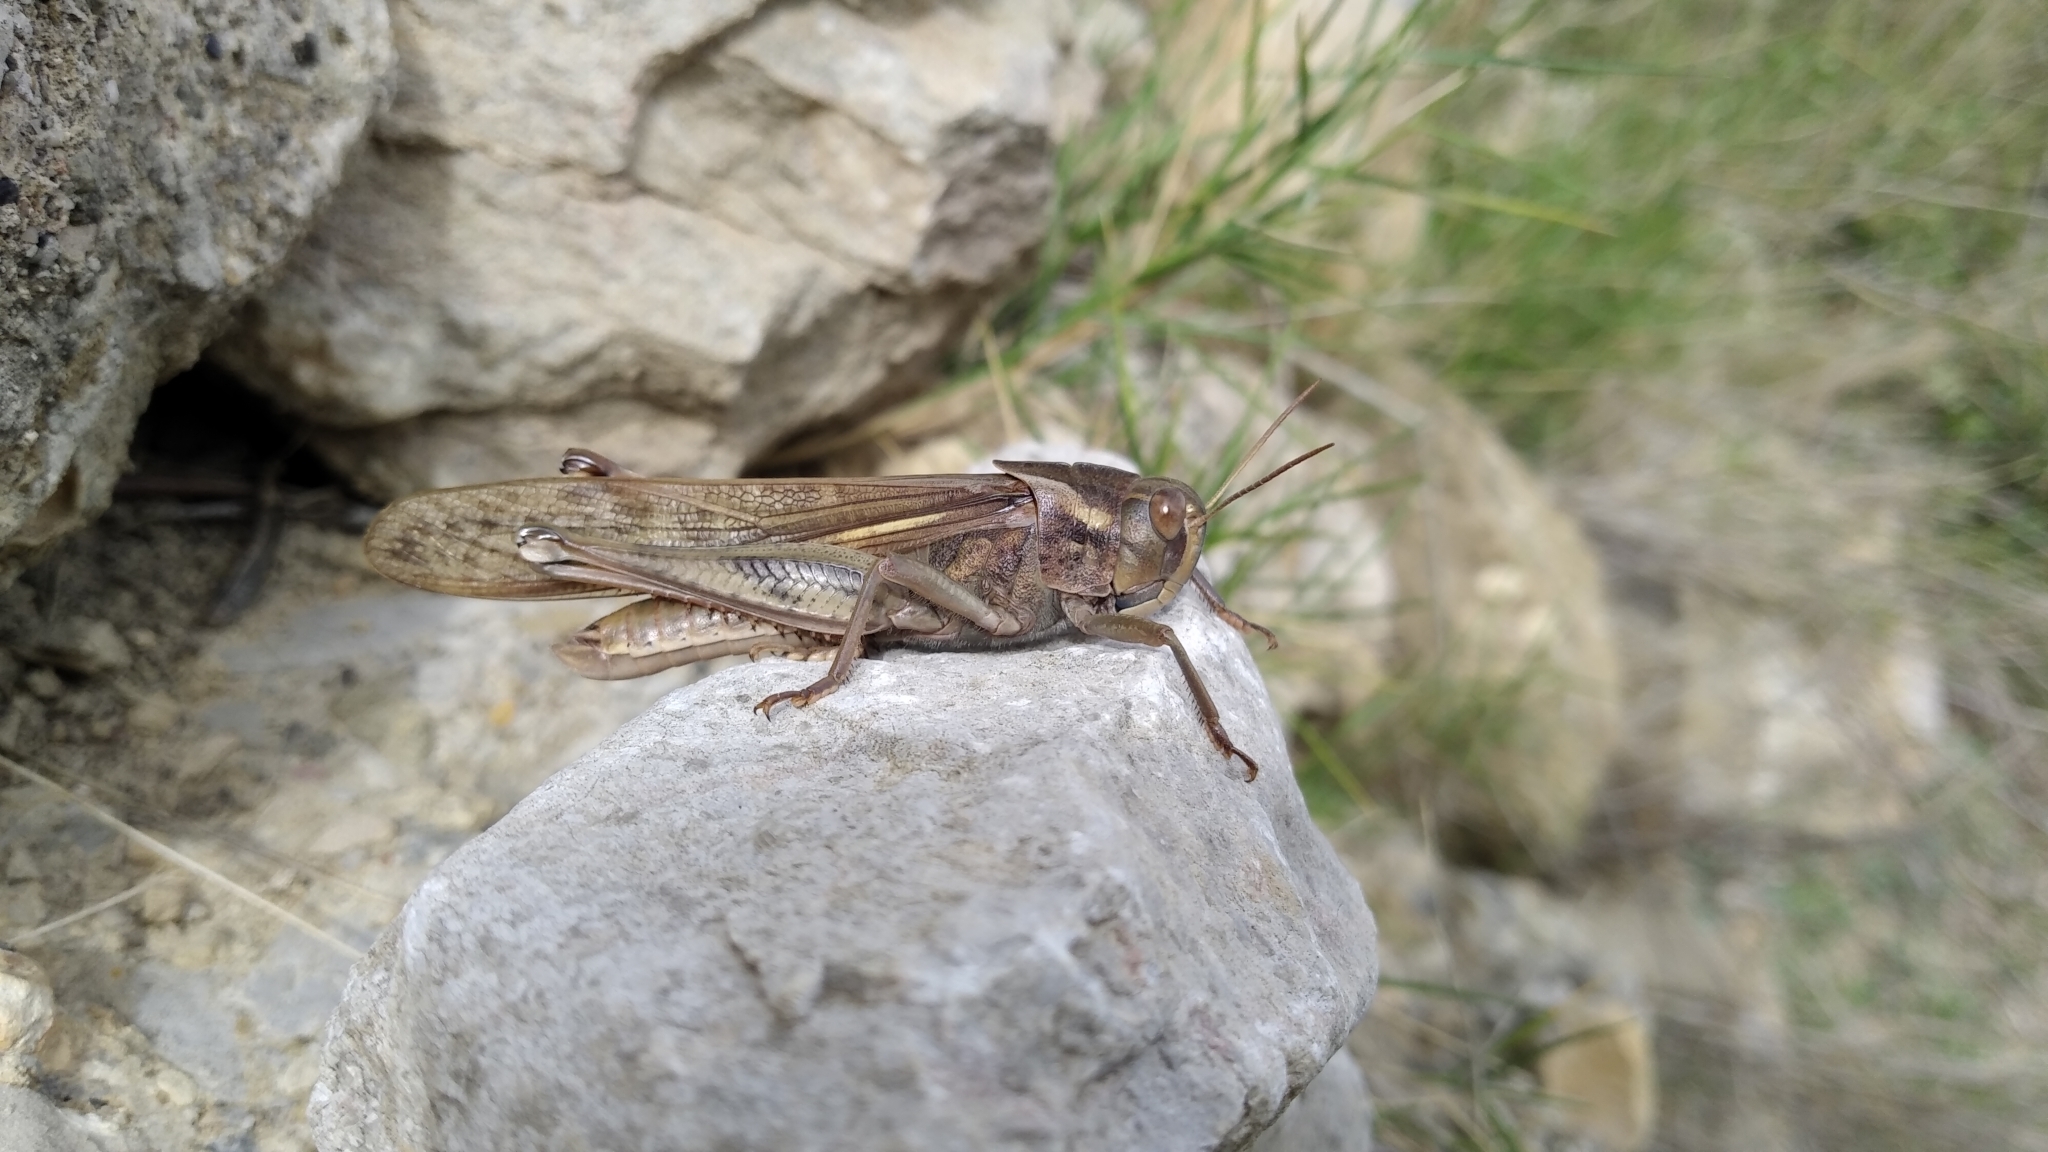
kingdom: Animalia
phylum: Arthropoda
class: Insecta
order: Orthoptera
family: Acrididae
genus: Locusta
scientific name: Locusta migratoria
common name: Migratory locust
